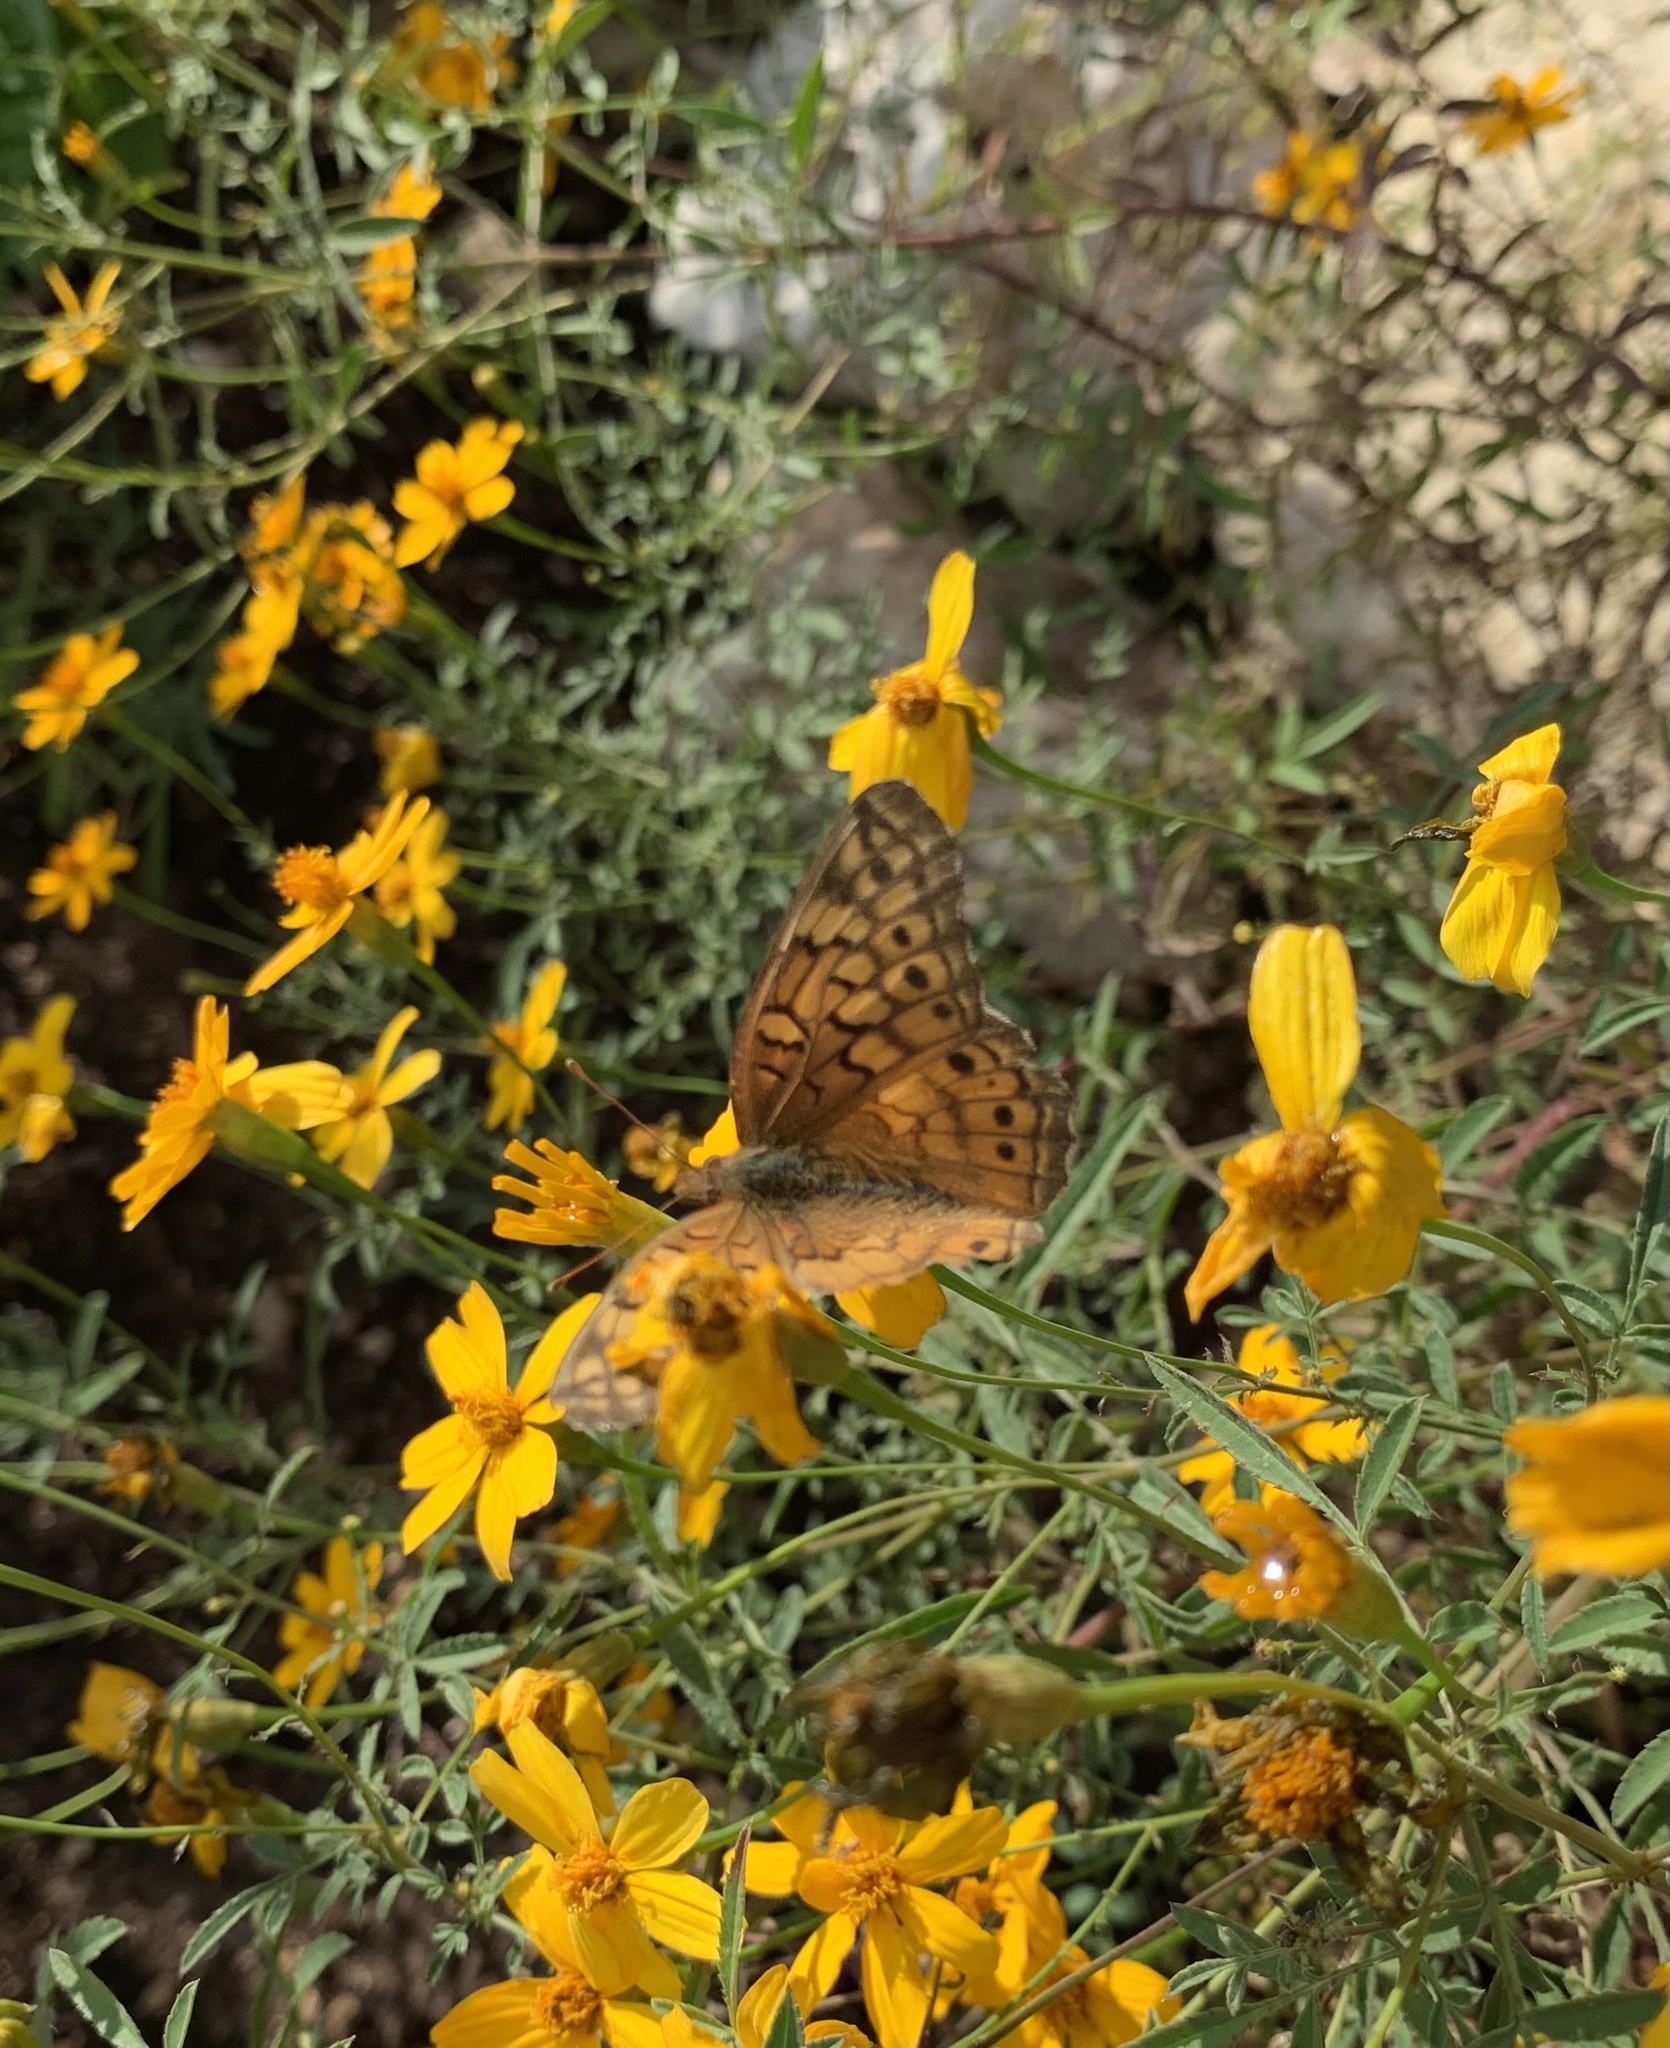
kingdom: Animalia
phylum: Arthropoda
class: Insecta
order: Lepidoptera
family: Nymphalidae
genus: Euptoieta
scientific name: Euptoieta claudia
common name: Variegated fritillary
